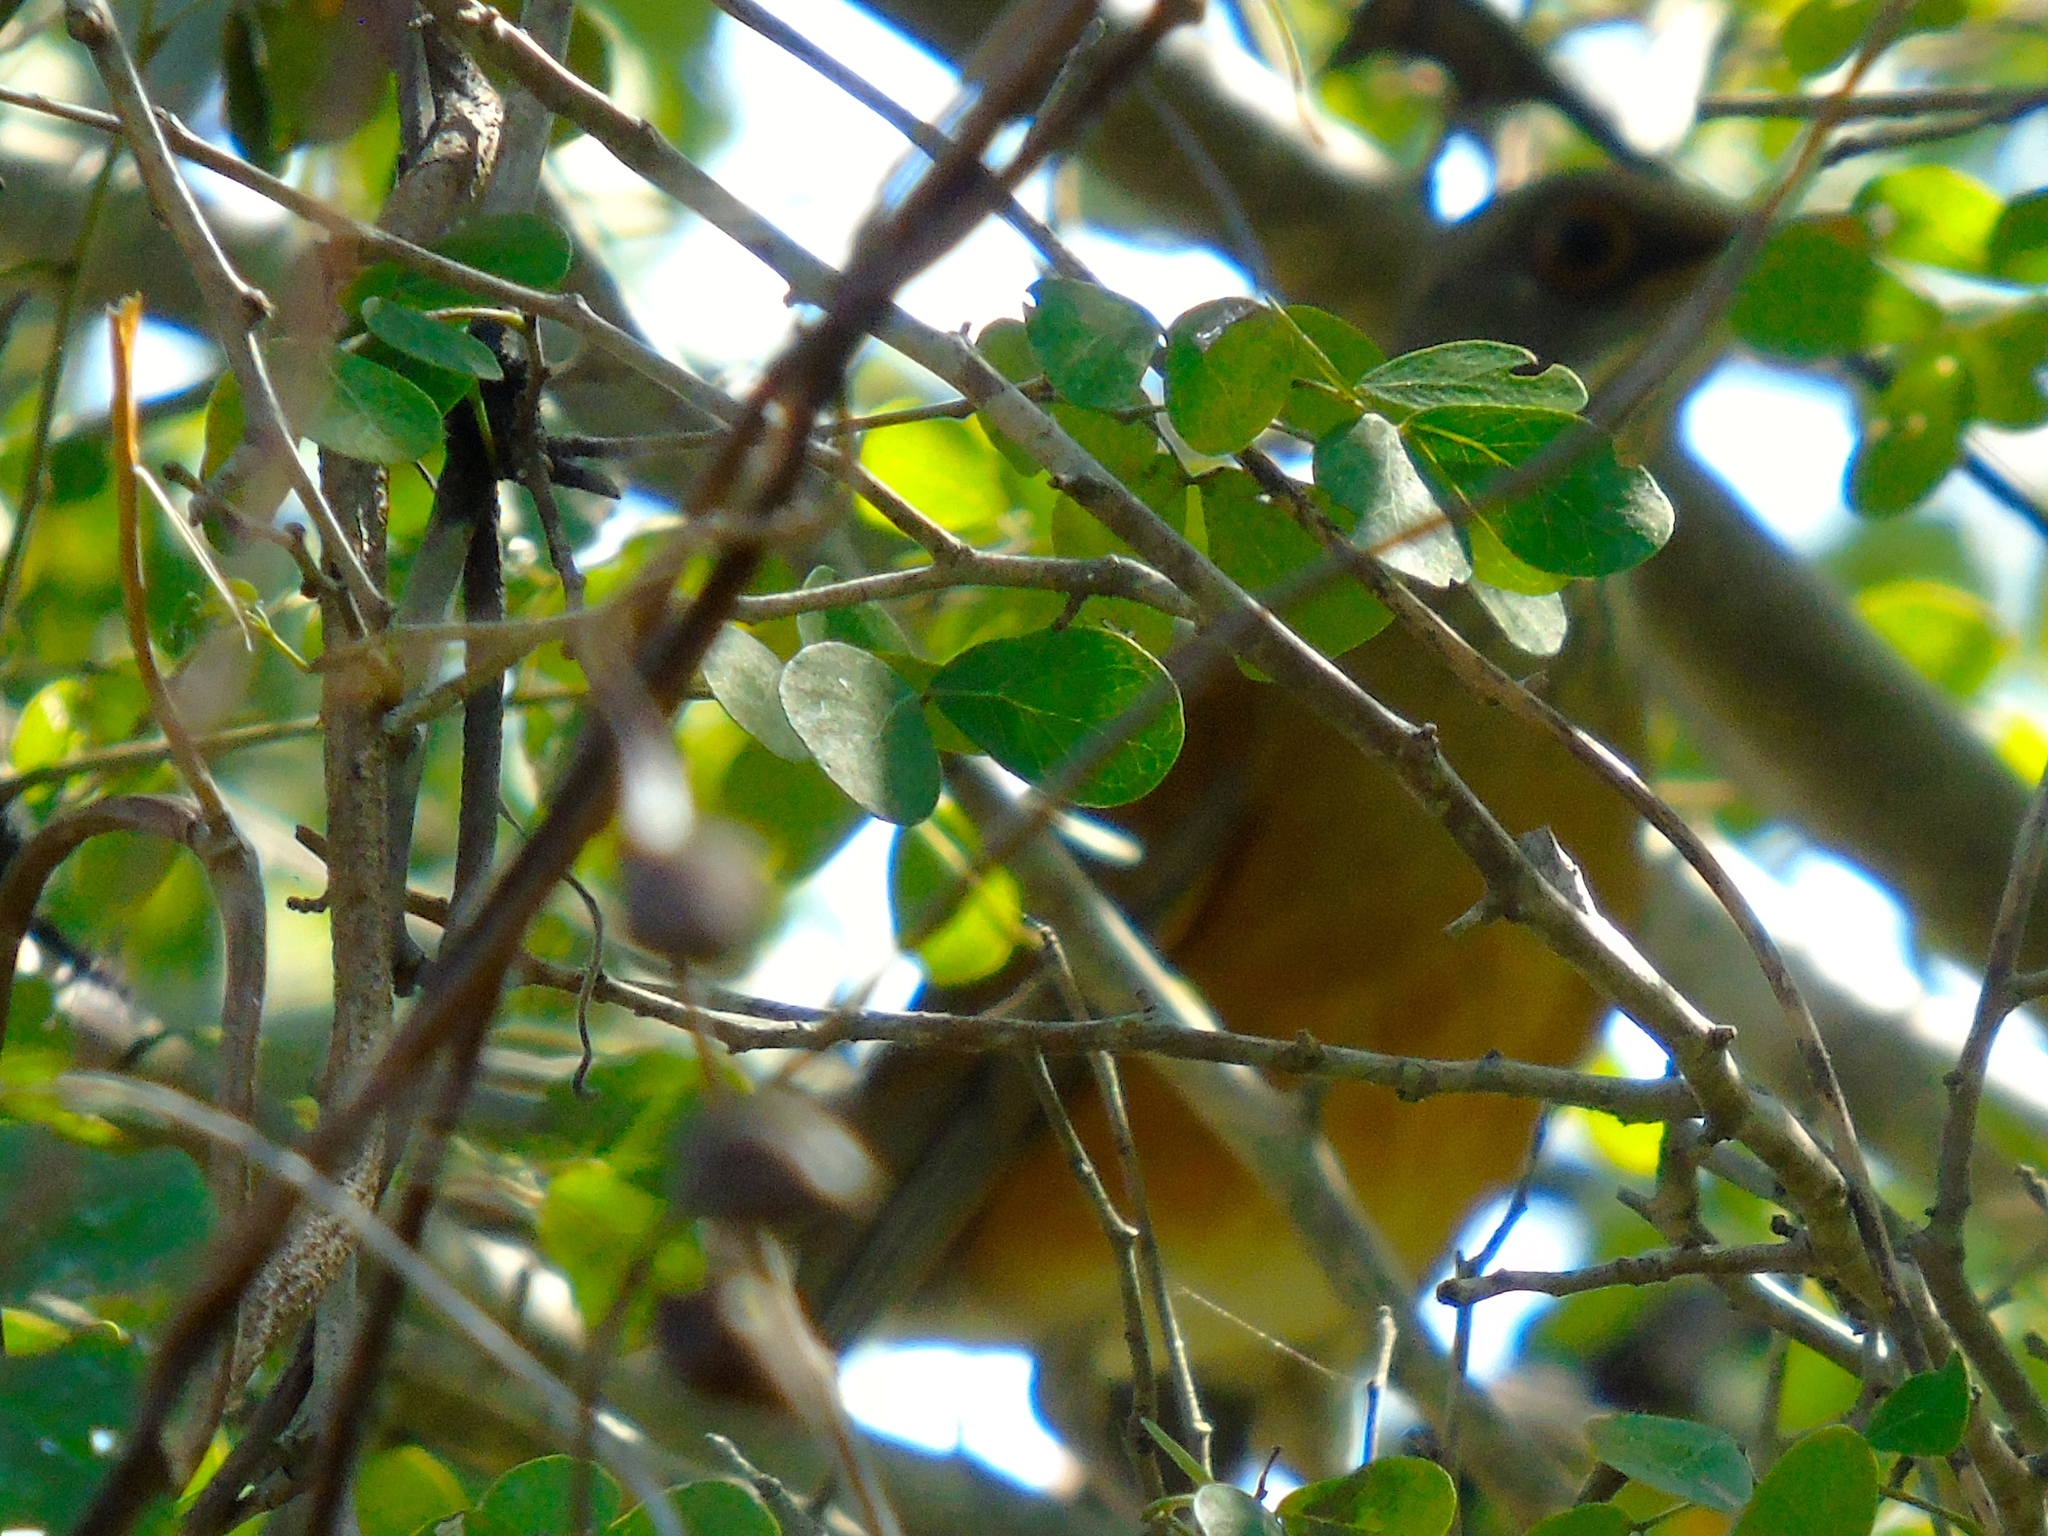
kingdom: Animalia
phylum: Chordata
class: Aves
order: Passeriformes
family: Turdidae
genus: Turdus
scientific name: Turdus rufopalliatus
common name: Rufous-backed robin
